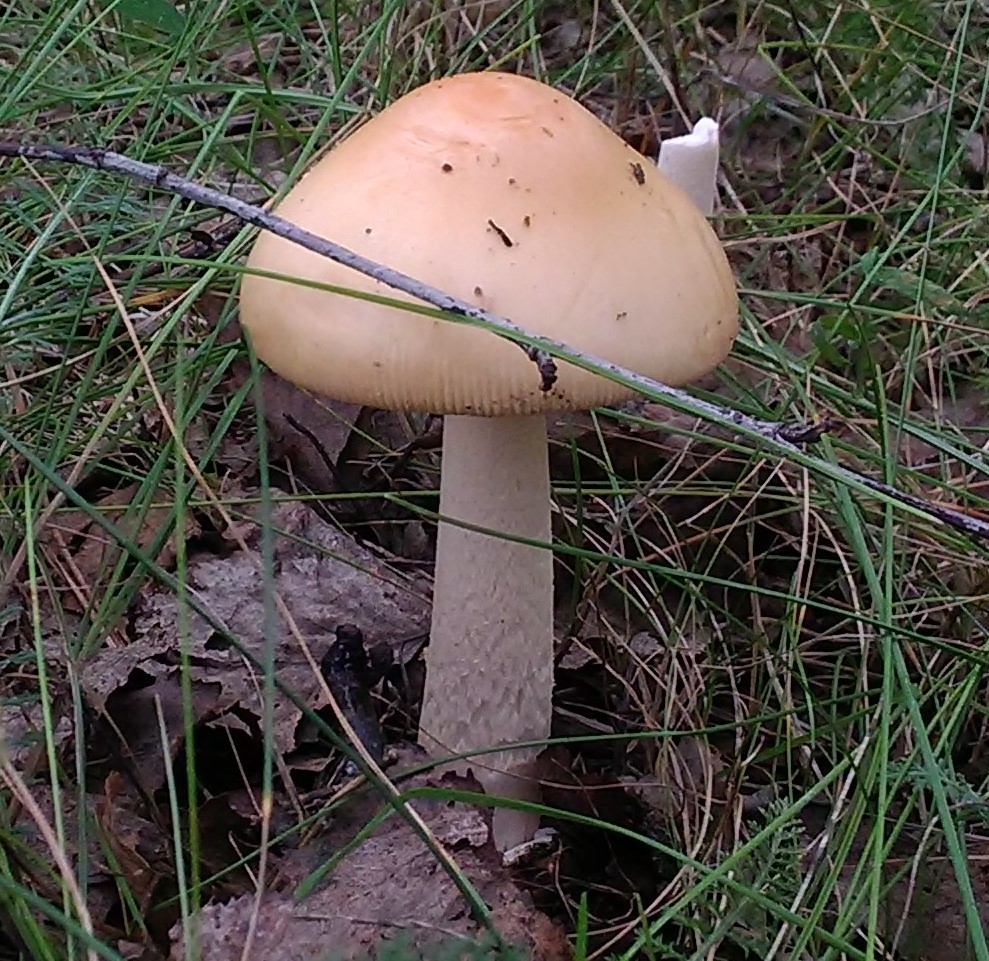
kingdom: Fungi
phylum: Basidiomycota
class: Agaricomycetes
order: Agaricales
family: Amanitaceae
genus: Amanita
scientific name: Amanita crocea
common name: Orange grisette
